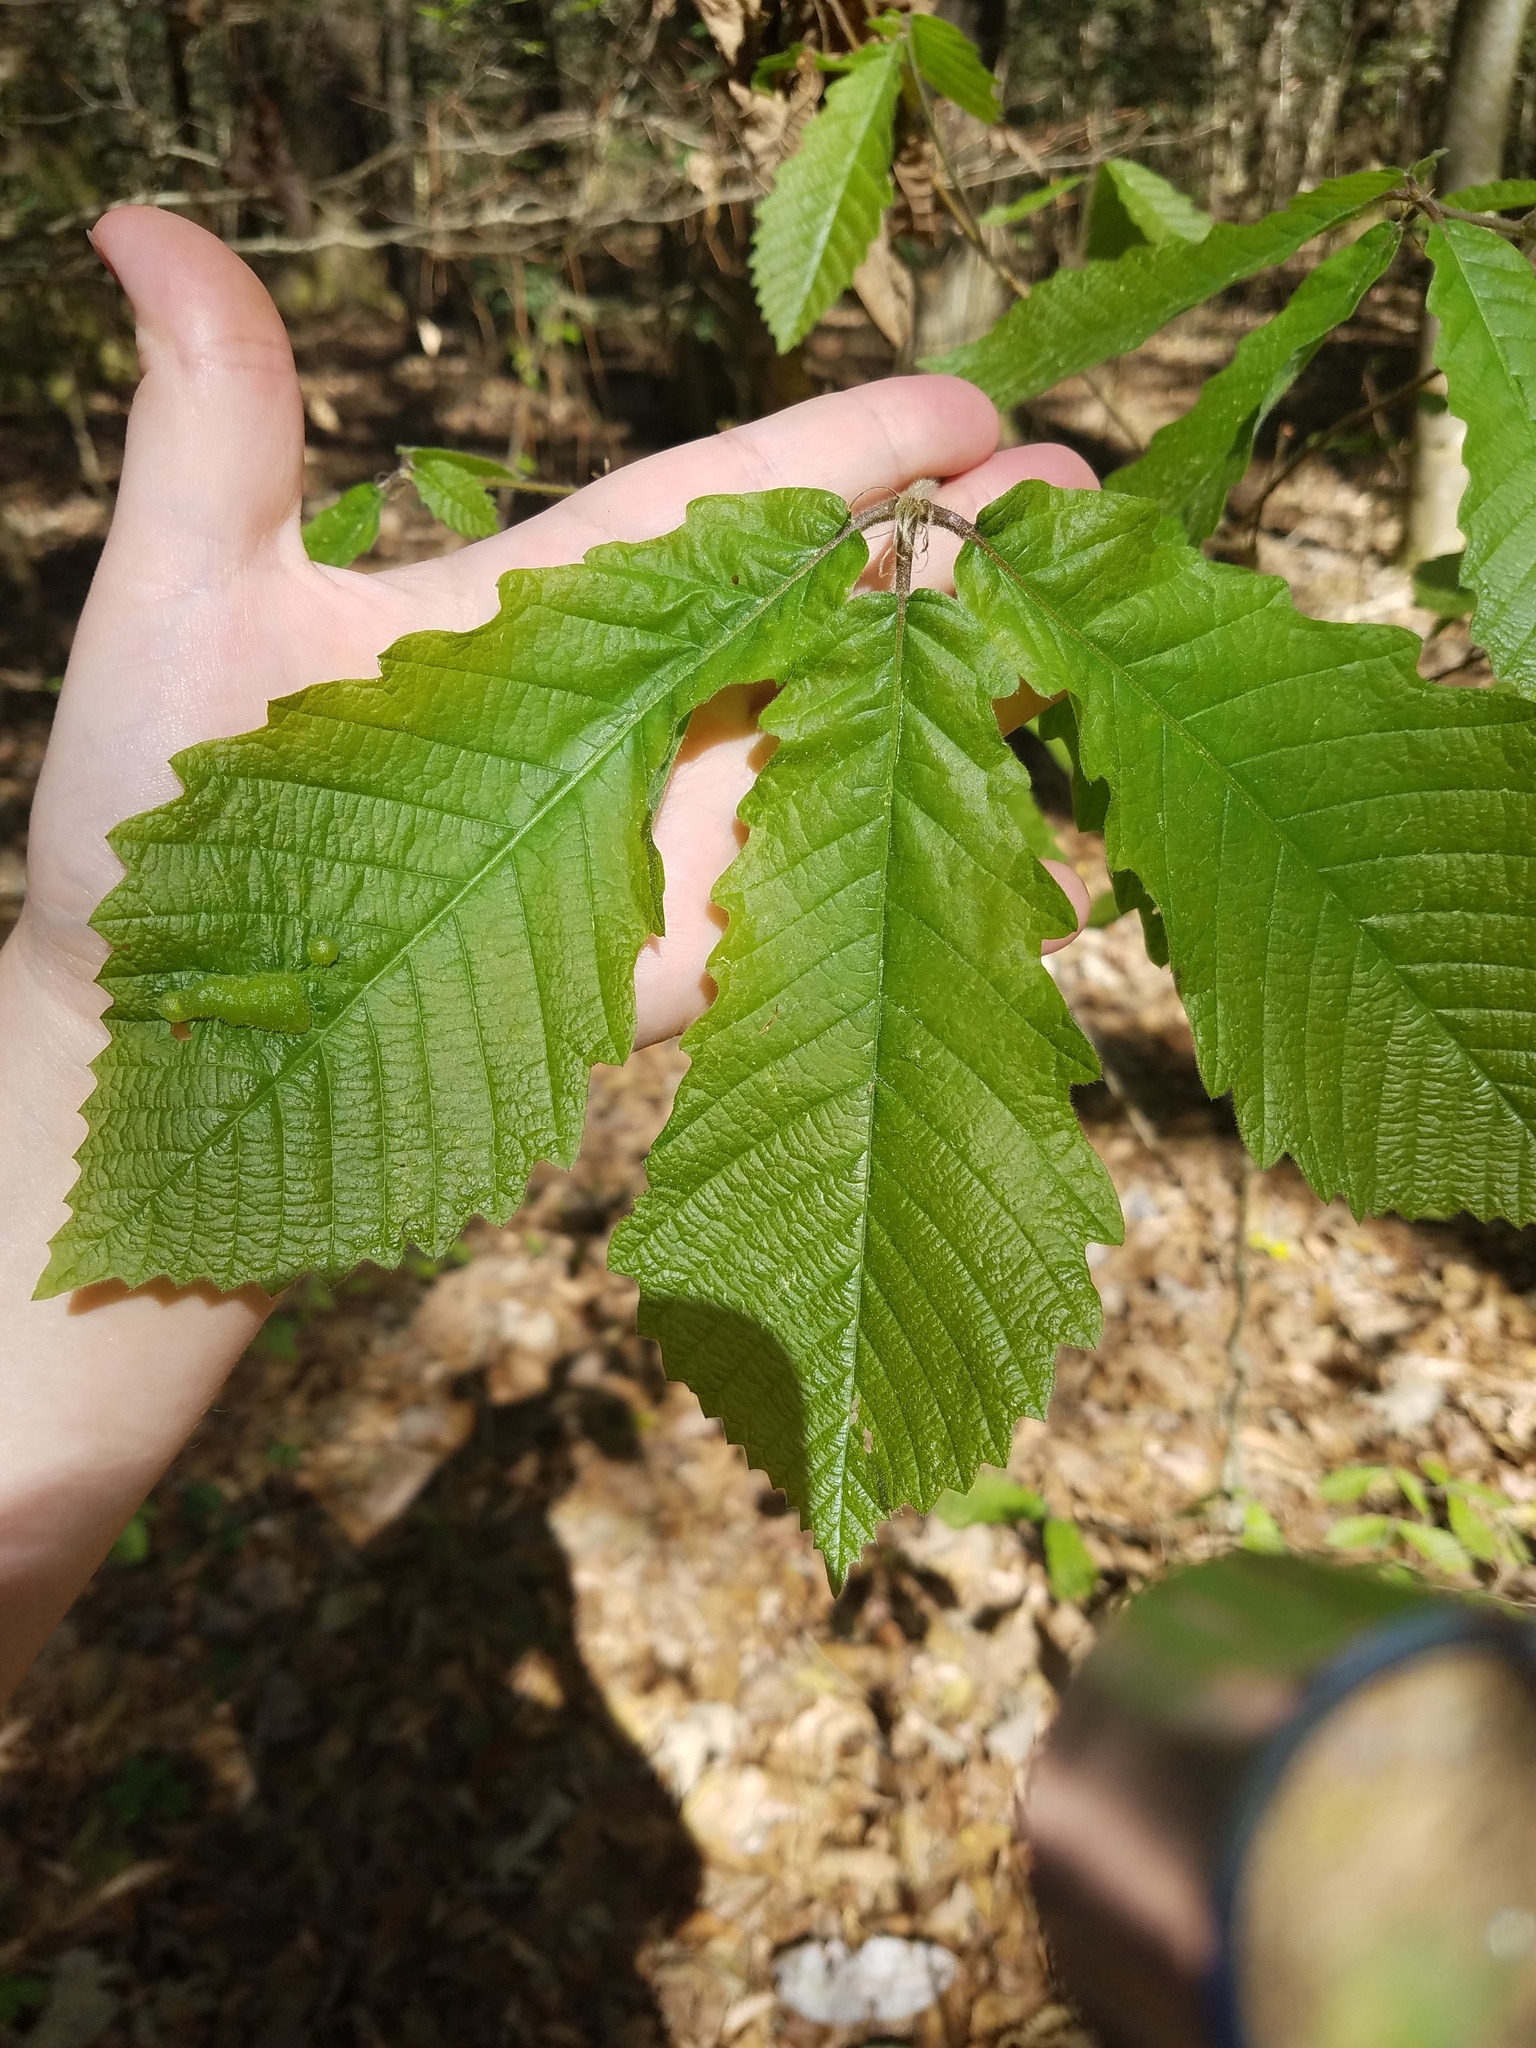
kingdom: Plantae
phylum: Tracheophyta
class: Magnoliopsida
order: Fagales
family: Fagaceae
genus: Quercus
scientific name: Quercus michauxii
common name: Swamp chestnut oak
